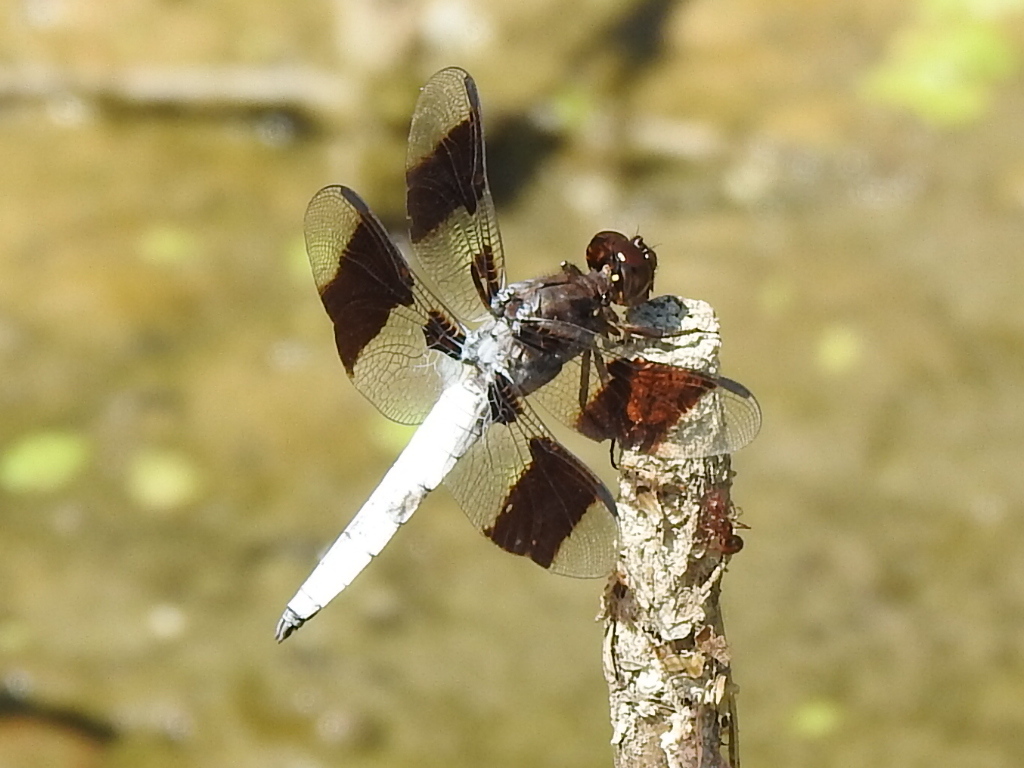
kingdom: Animalia
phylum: Arthropoda
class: Insecta
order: Odonata
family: Libellulidae
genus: Plathemis
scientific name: Plathemis lydia
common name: Common whitetail
